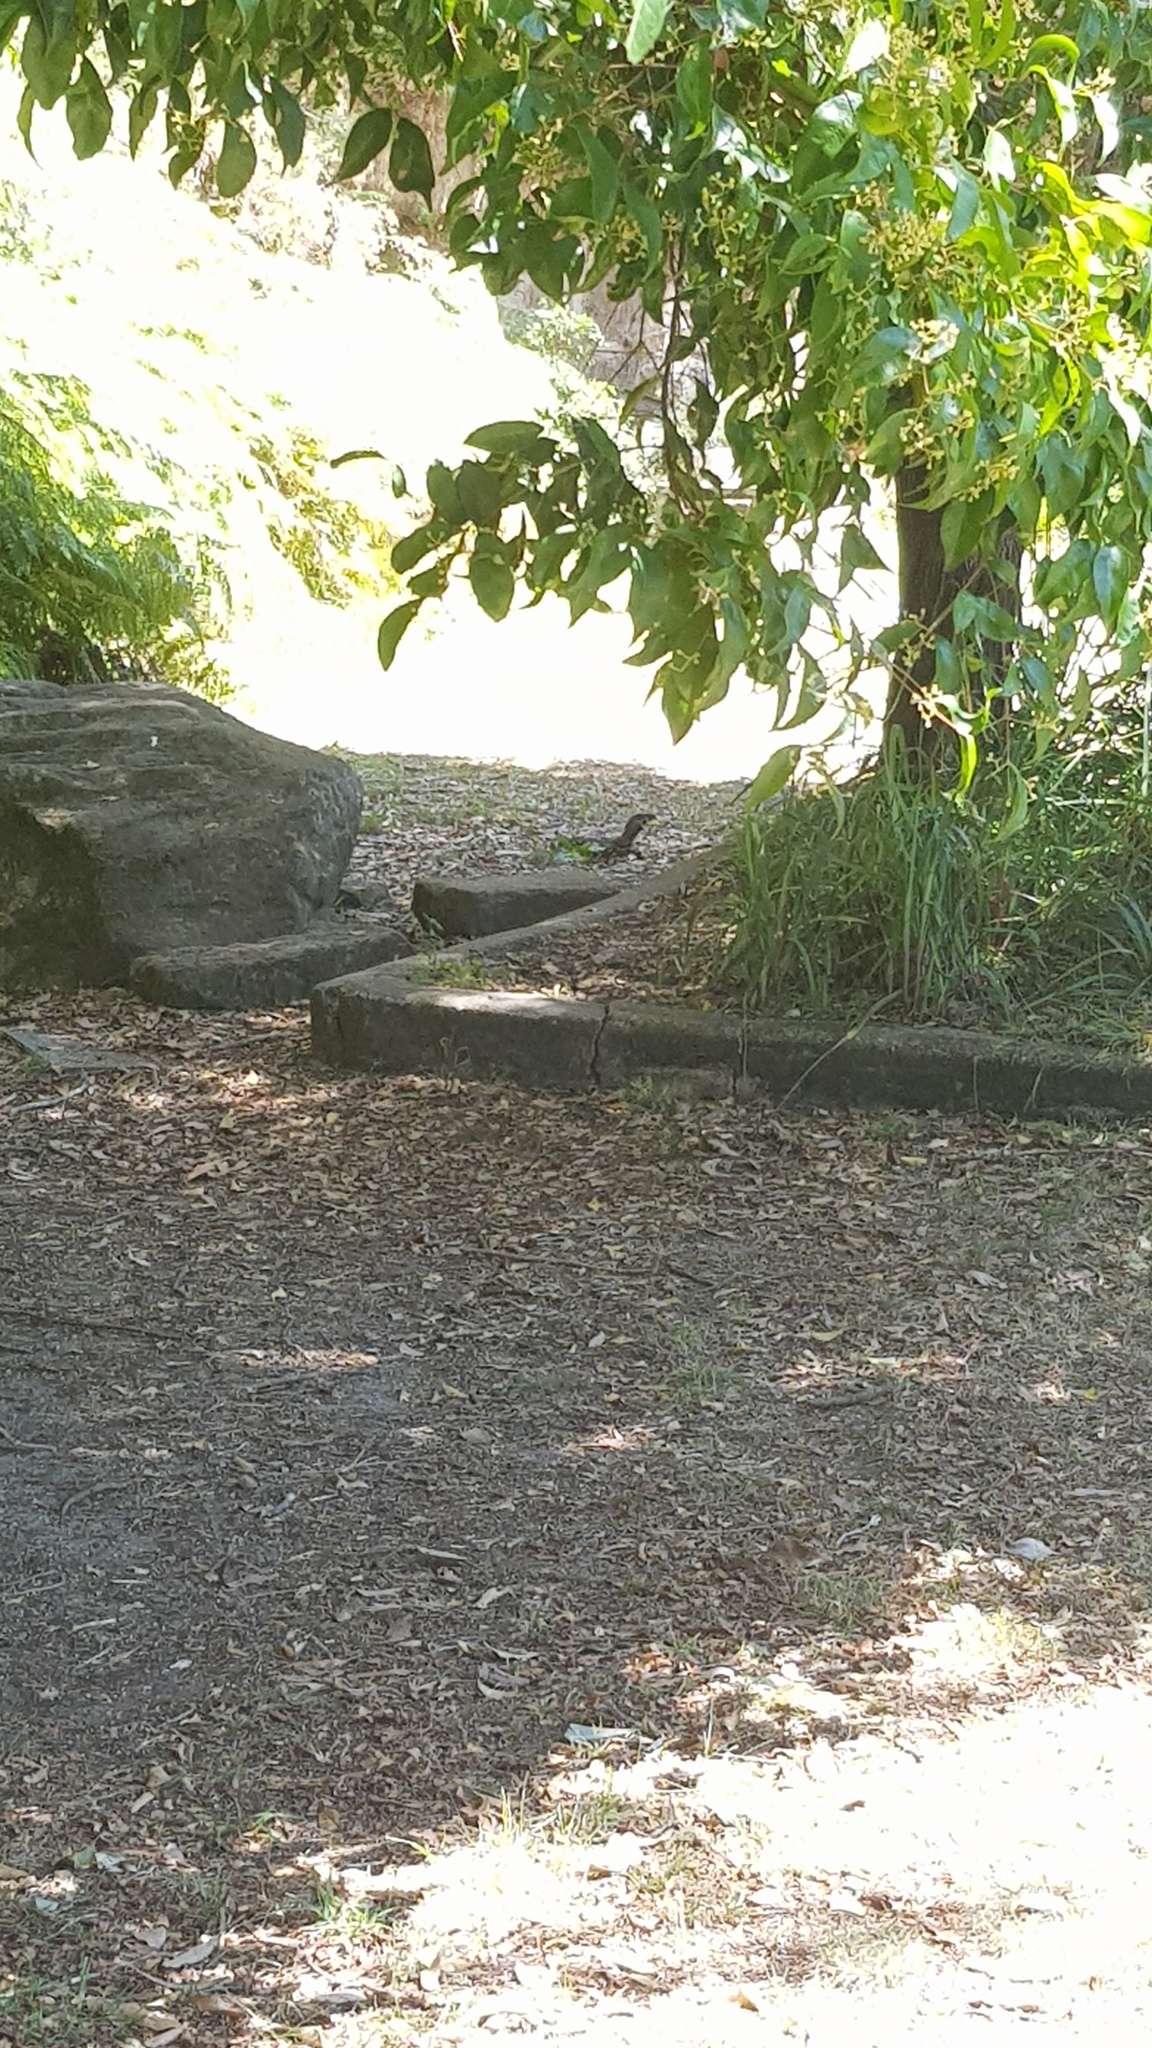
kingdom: Animalia
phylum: Chordata
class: Squamata
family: Varanidae
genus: Varanus
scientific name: Varanus varius
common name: Lace monitor
